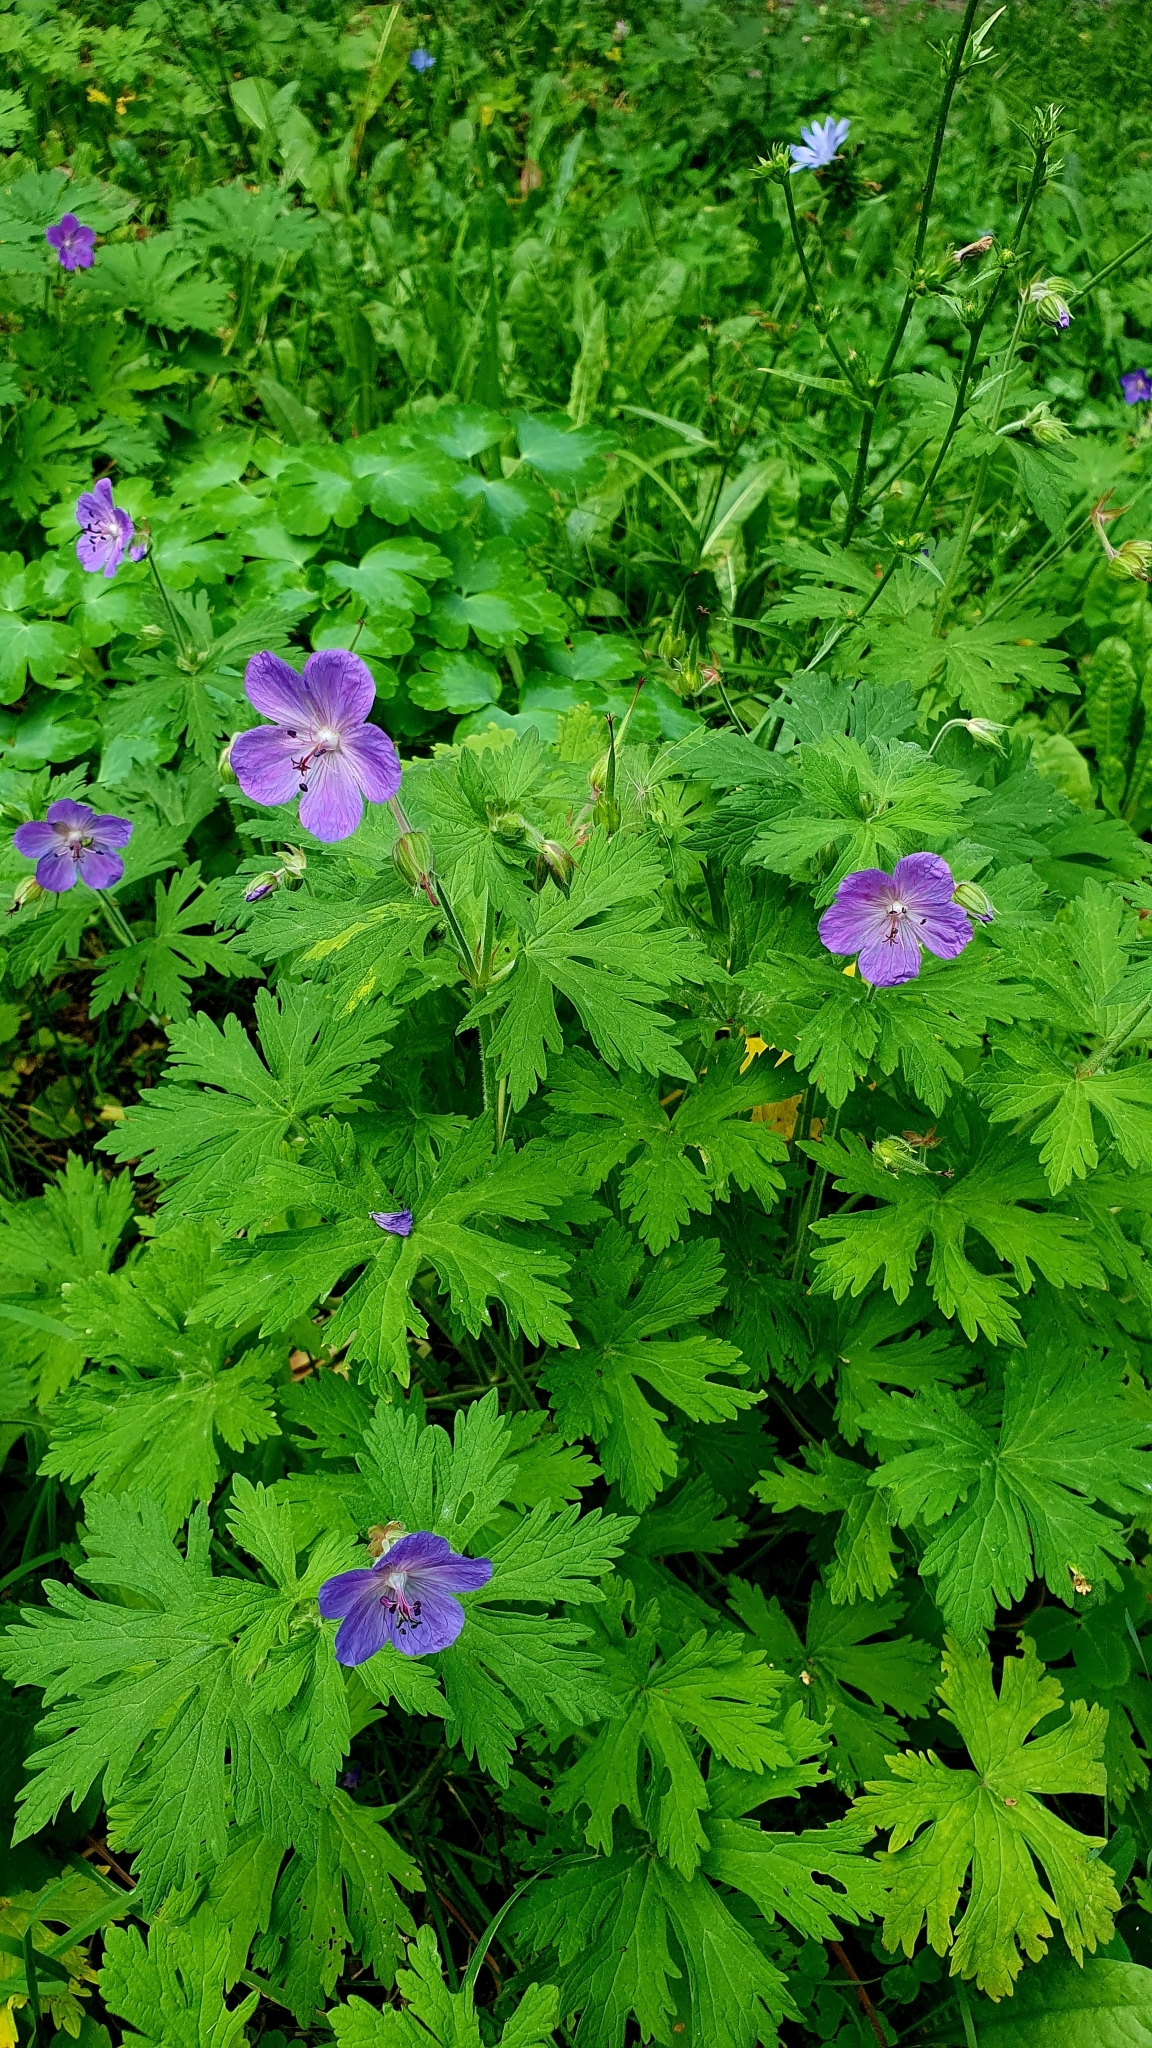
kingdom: Plantae
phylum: Tracheophyta
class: Magnoliopsida
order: Geraniales
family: Geraniaceae
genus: Geranium
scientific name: Geranium pratense
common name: Meadow crane's-bill
